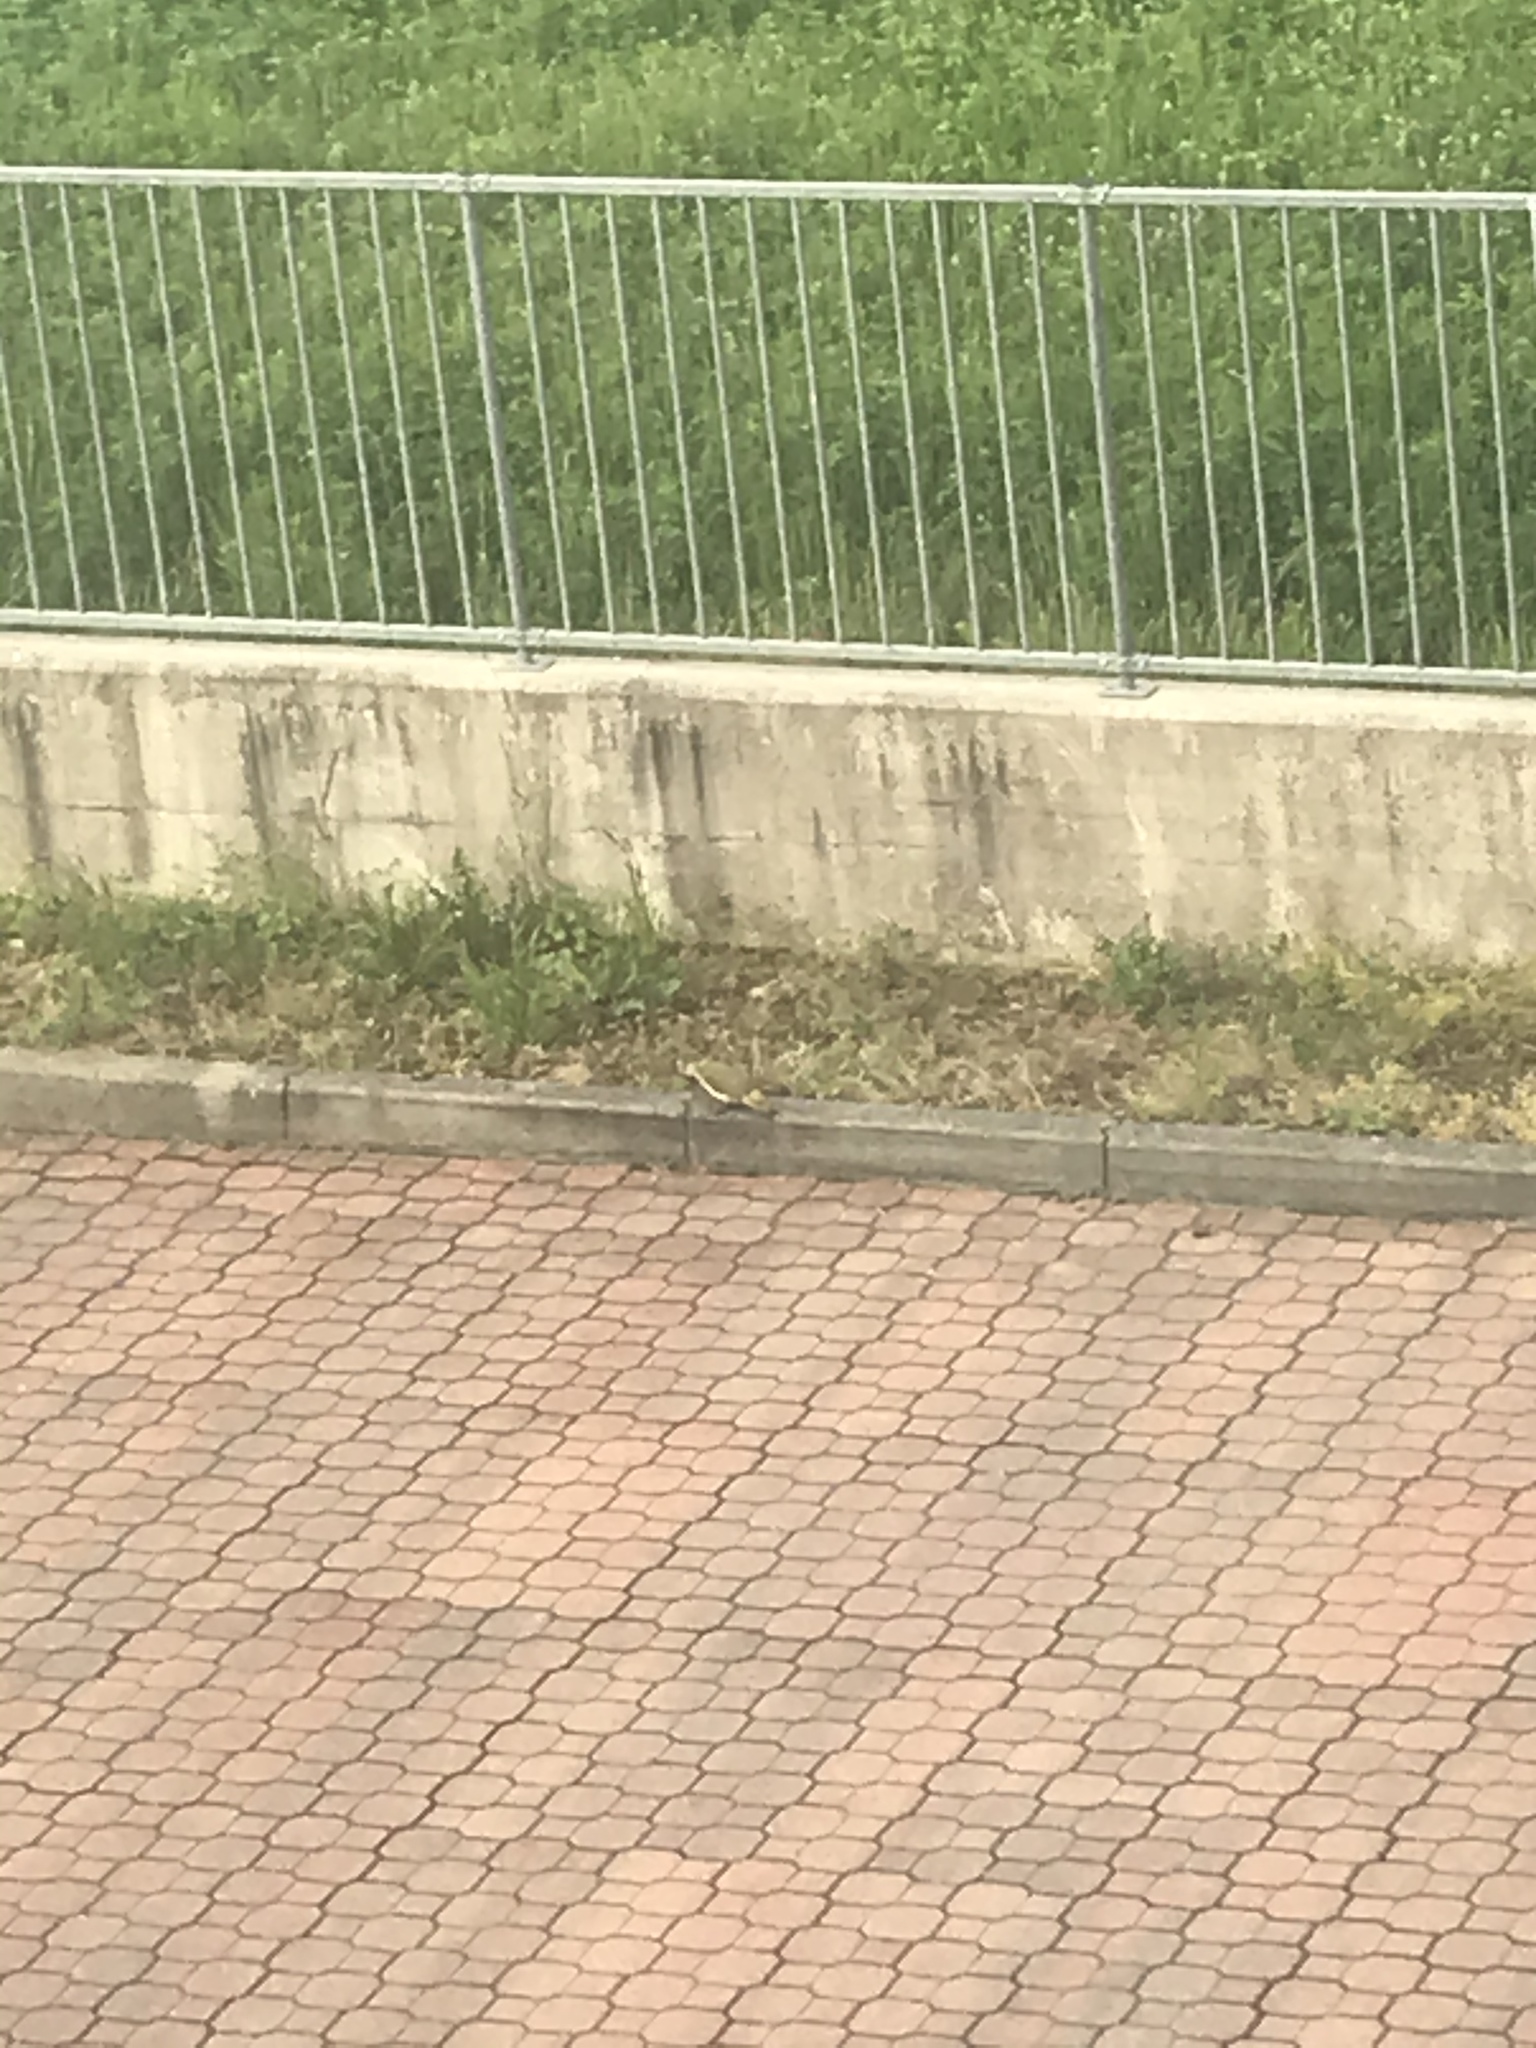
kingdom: Animalia
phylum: Chordata
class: Aves
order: Piciformes
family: Picidae
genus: Picus
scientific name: Picus viridis
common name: European green woodpecker
